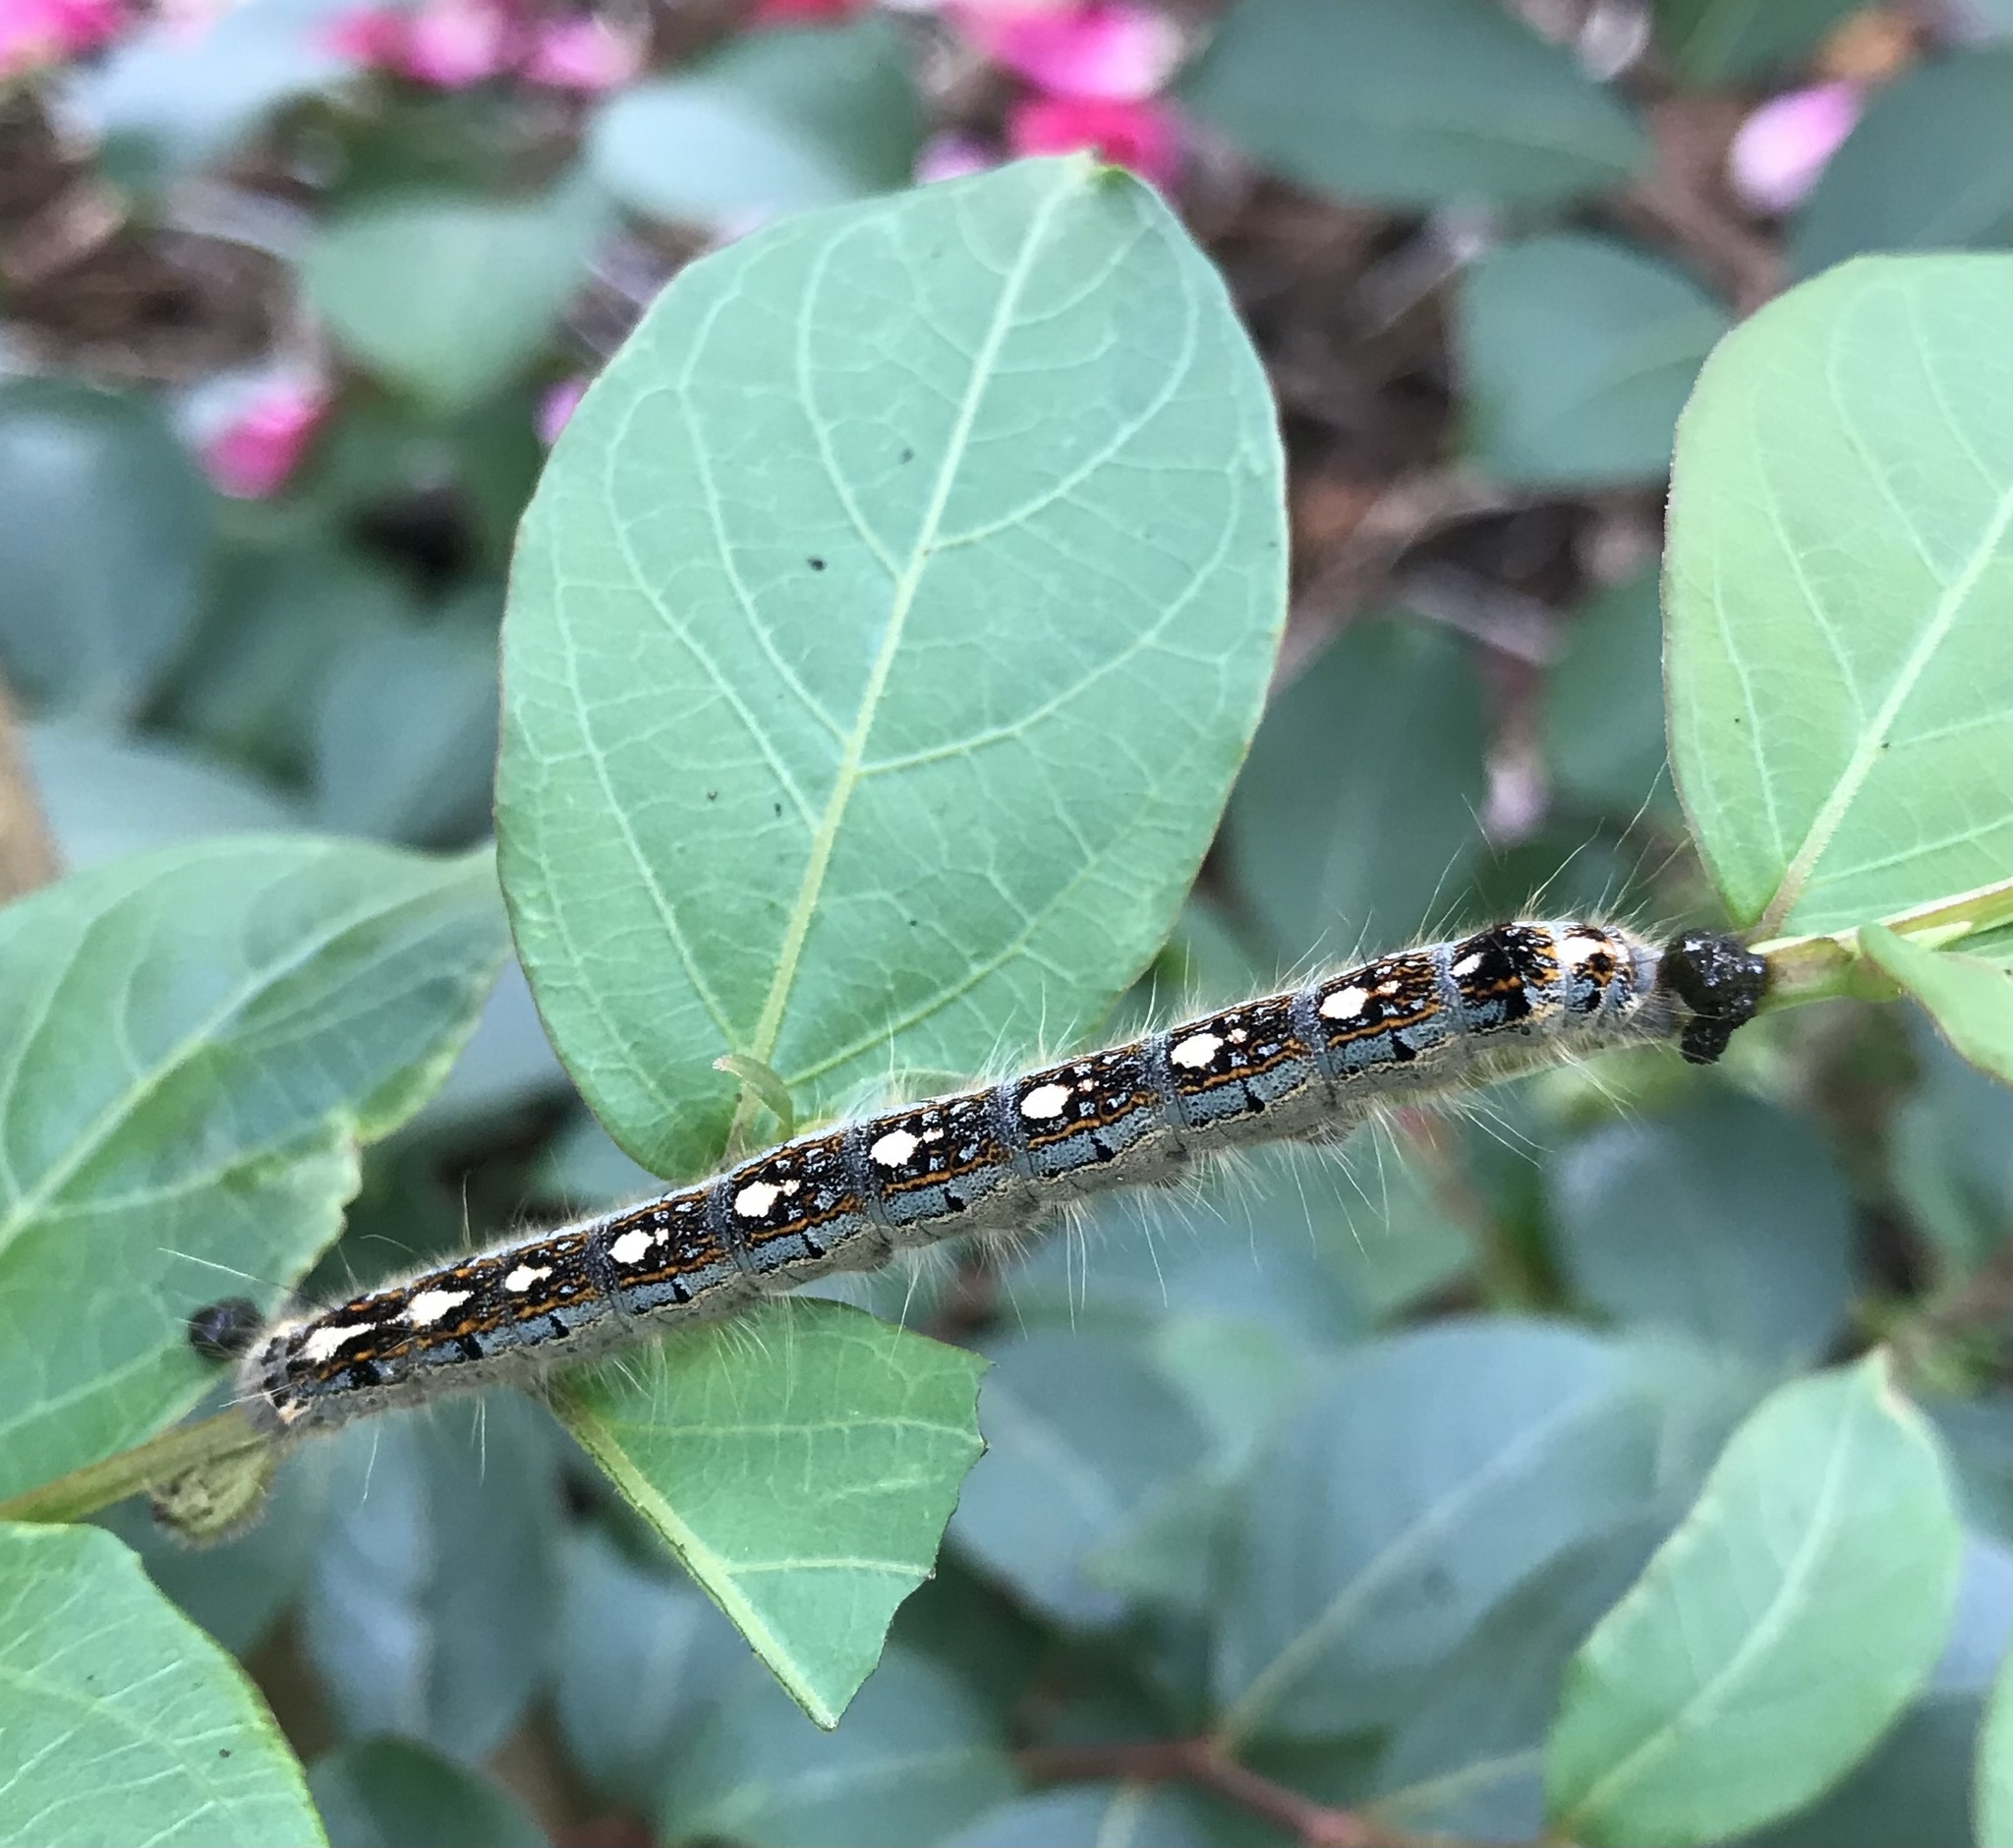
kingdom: Animalia
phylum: Arthropoda
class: Insecta
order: Lepidoptera
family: Lasiocampidae
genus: Malacosoma
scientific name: Malacosoma disstria
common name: Forest tent caterpillar
